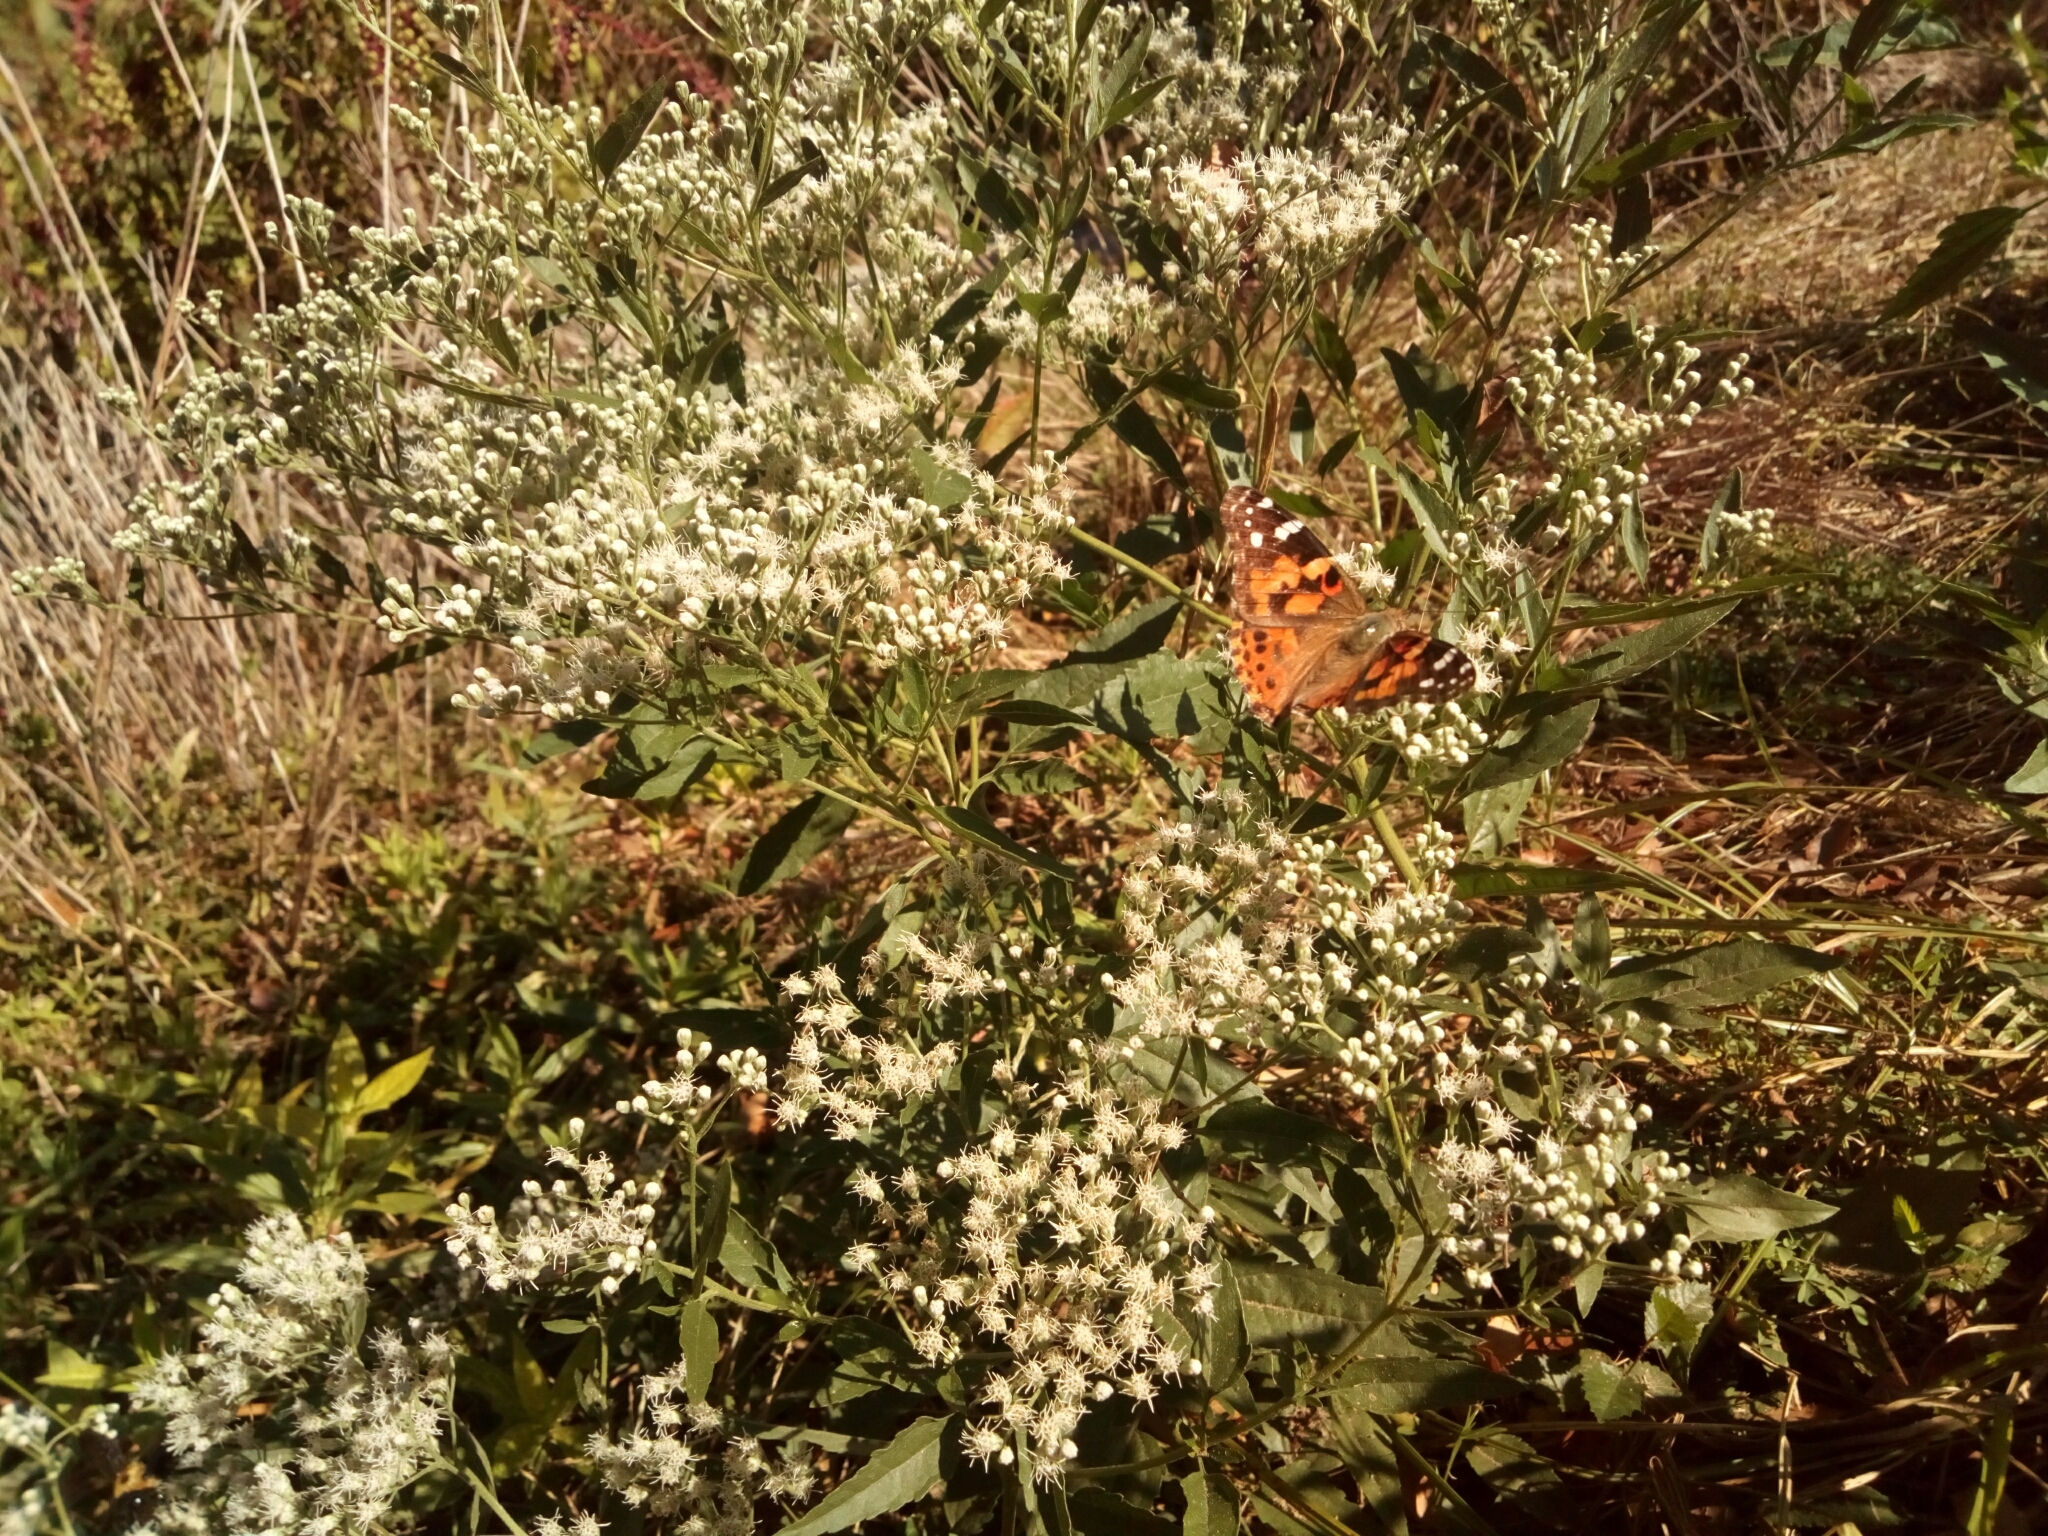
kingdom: Animalia
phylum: Arthropoda
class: Insecta
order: Lepidoptera
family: Nymphalidae
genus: Vanessa
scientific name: Vanessa cardui
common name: Painted lady
